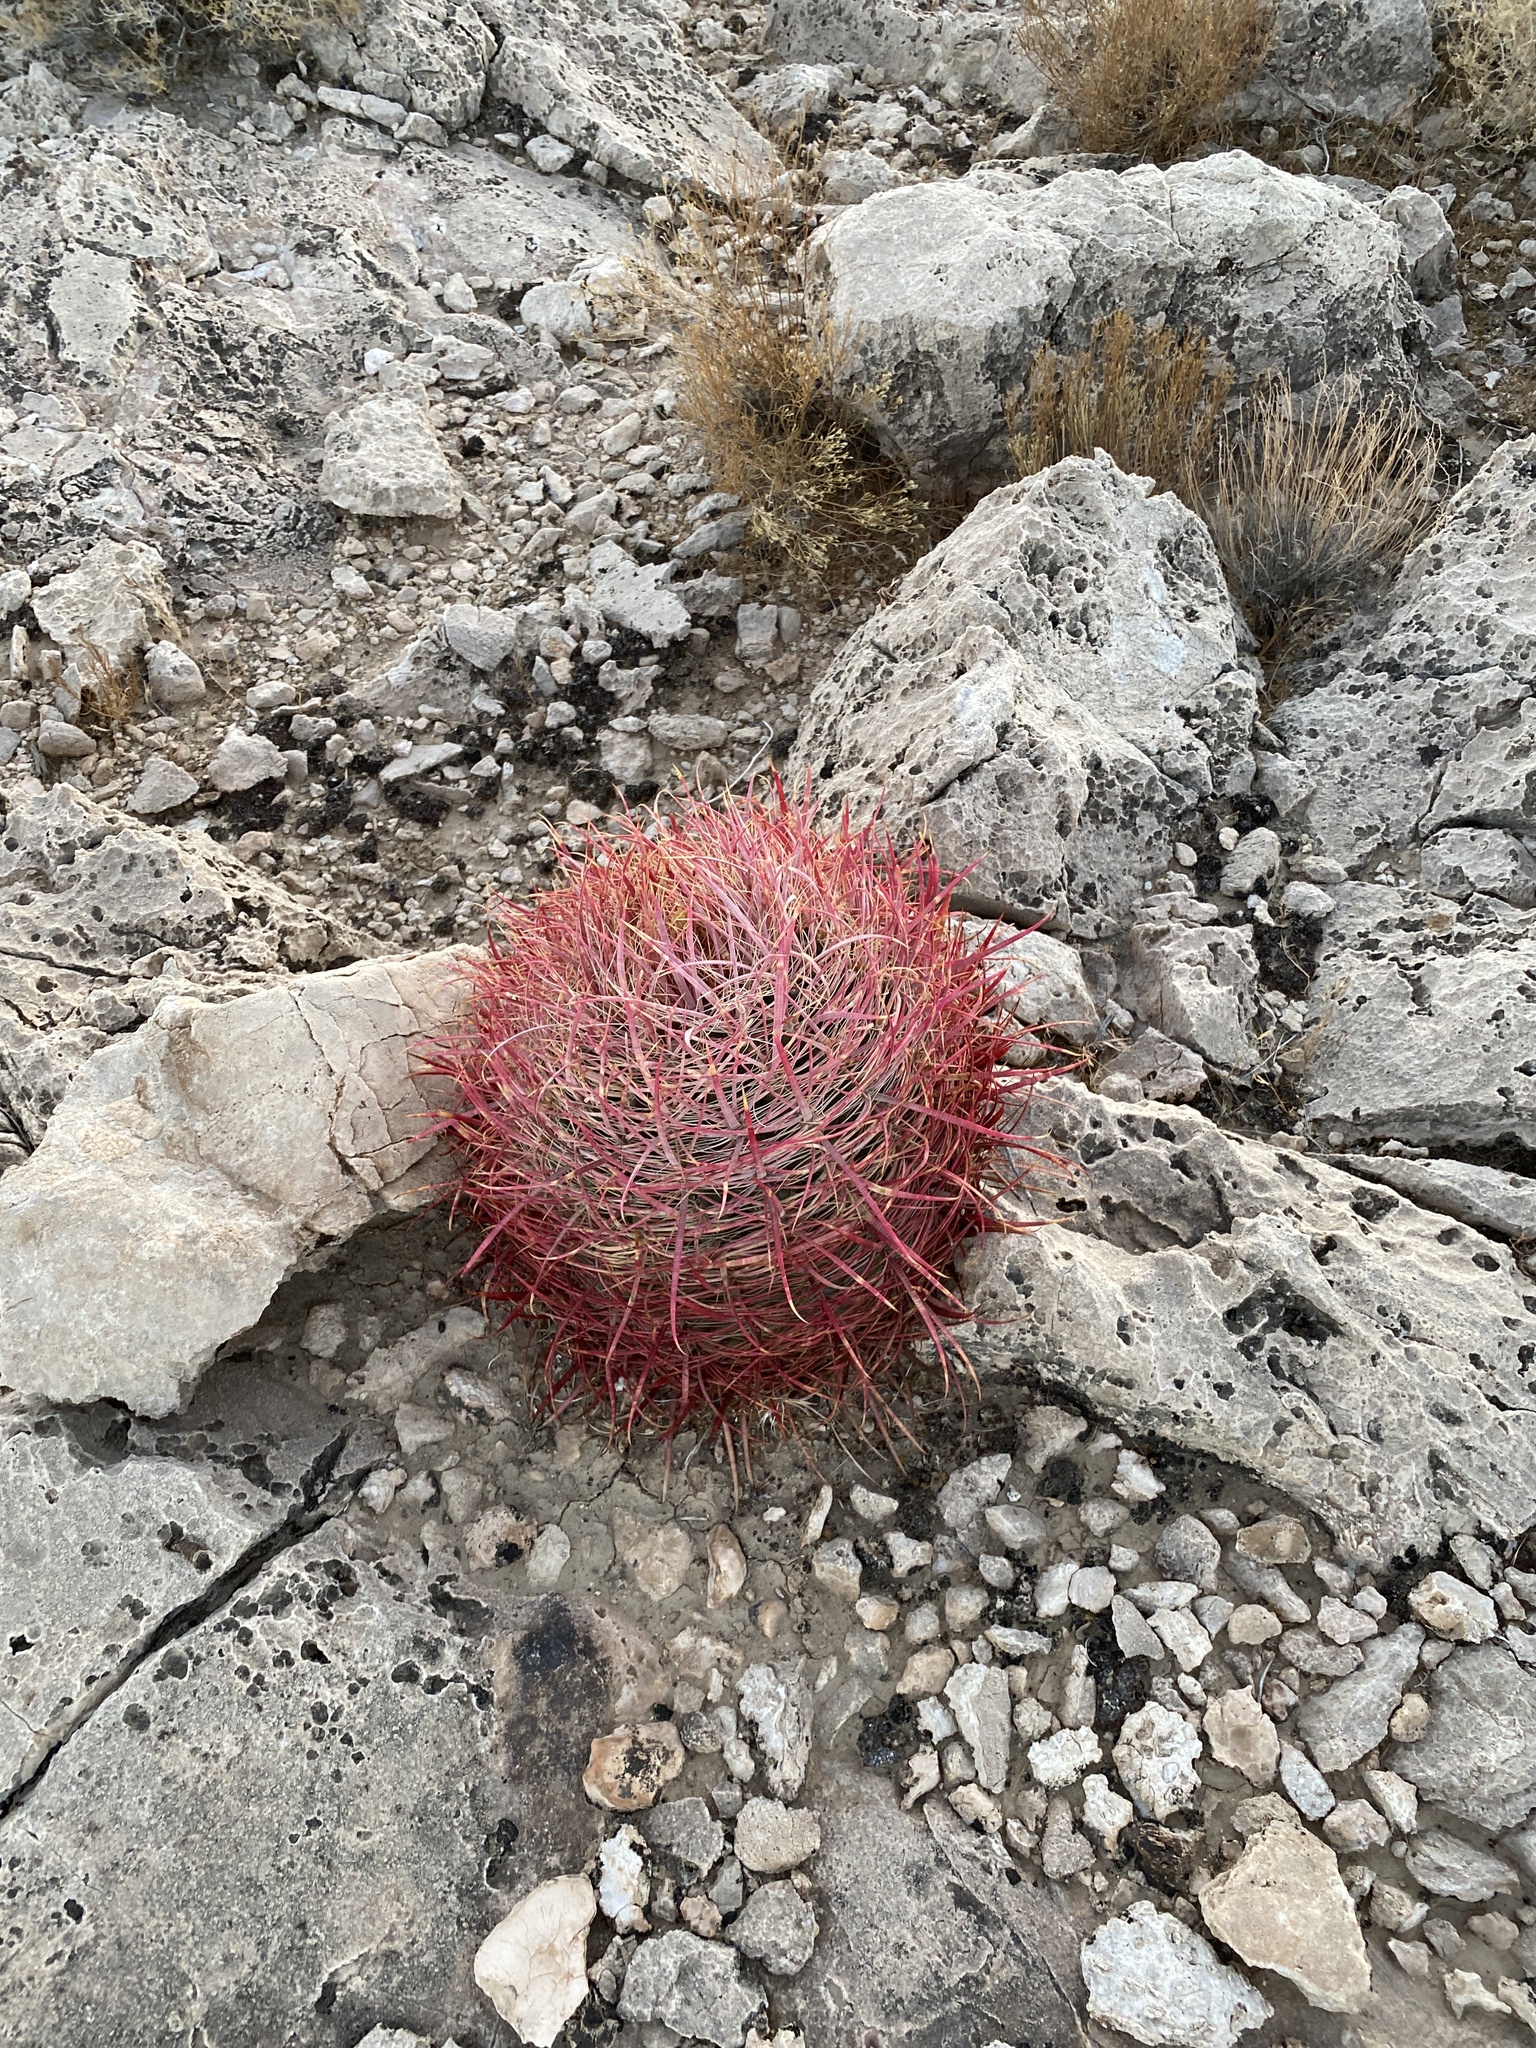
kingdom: Plantae
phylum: Tracheophyta
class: Magnoliopsida
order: Caryophyllales
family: Cactaceae
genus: Ferocactus
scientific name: Ferocactus cylindraceus
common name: California barrel cactus
